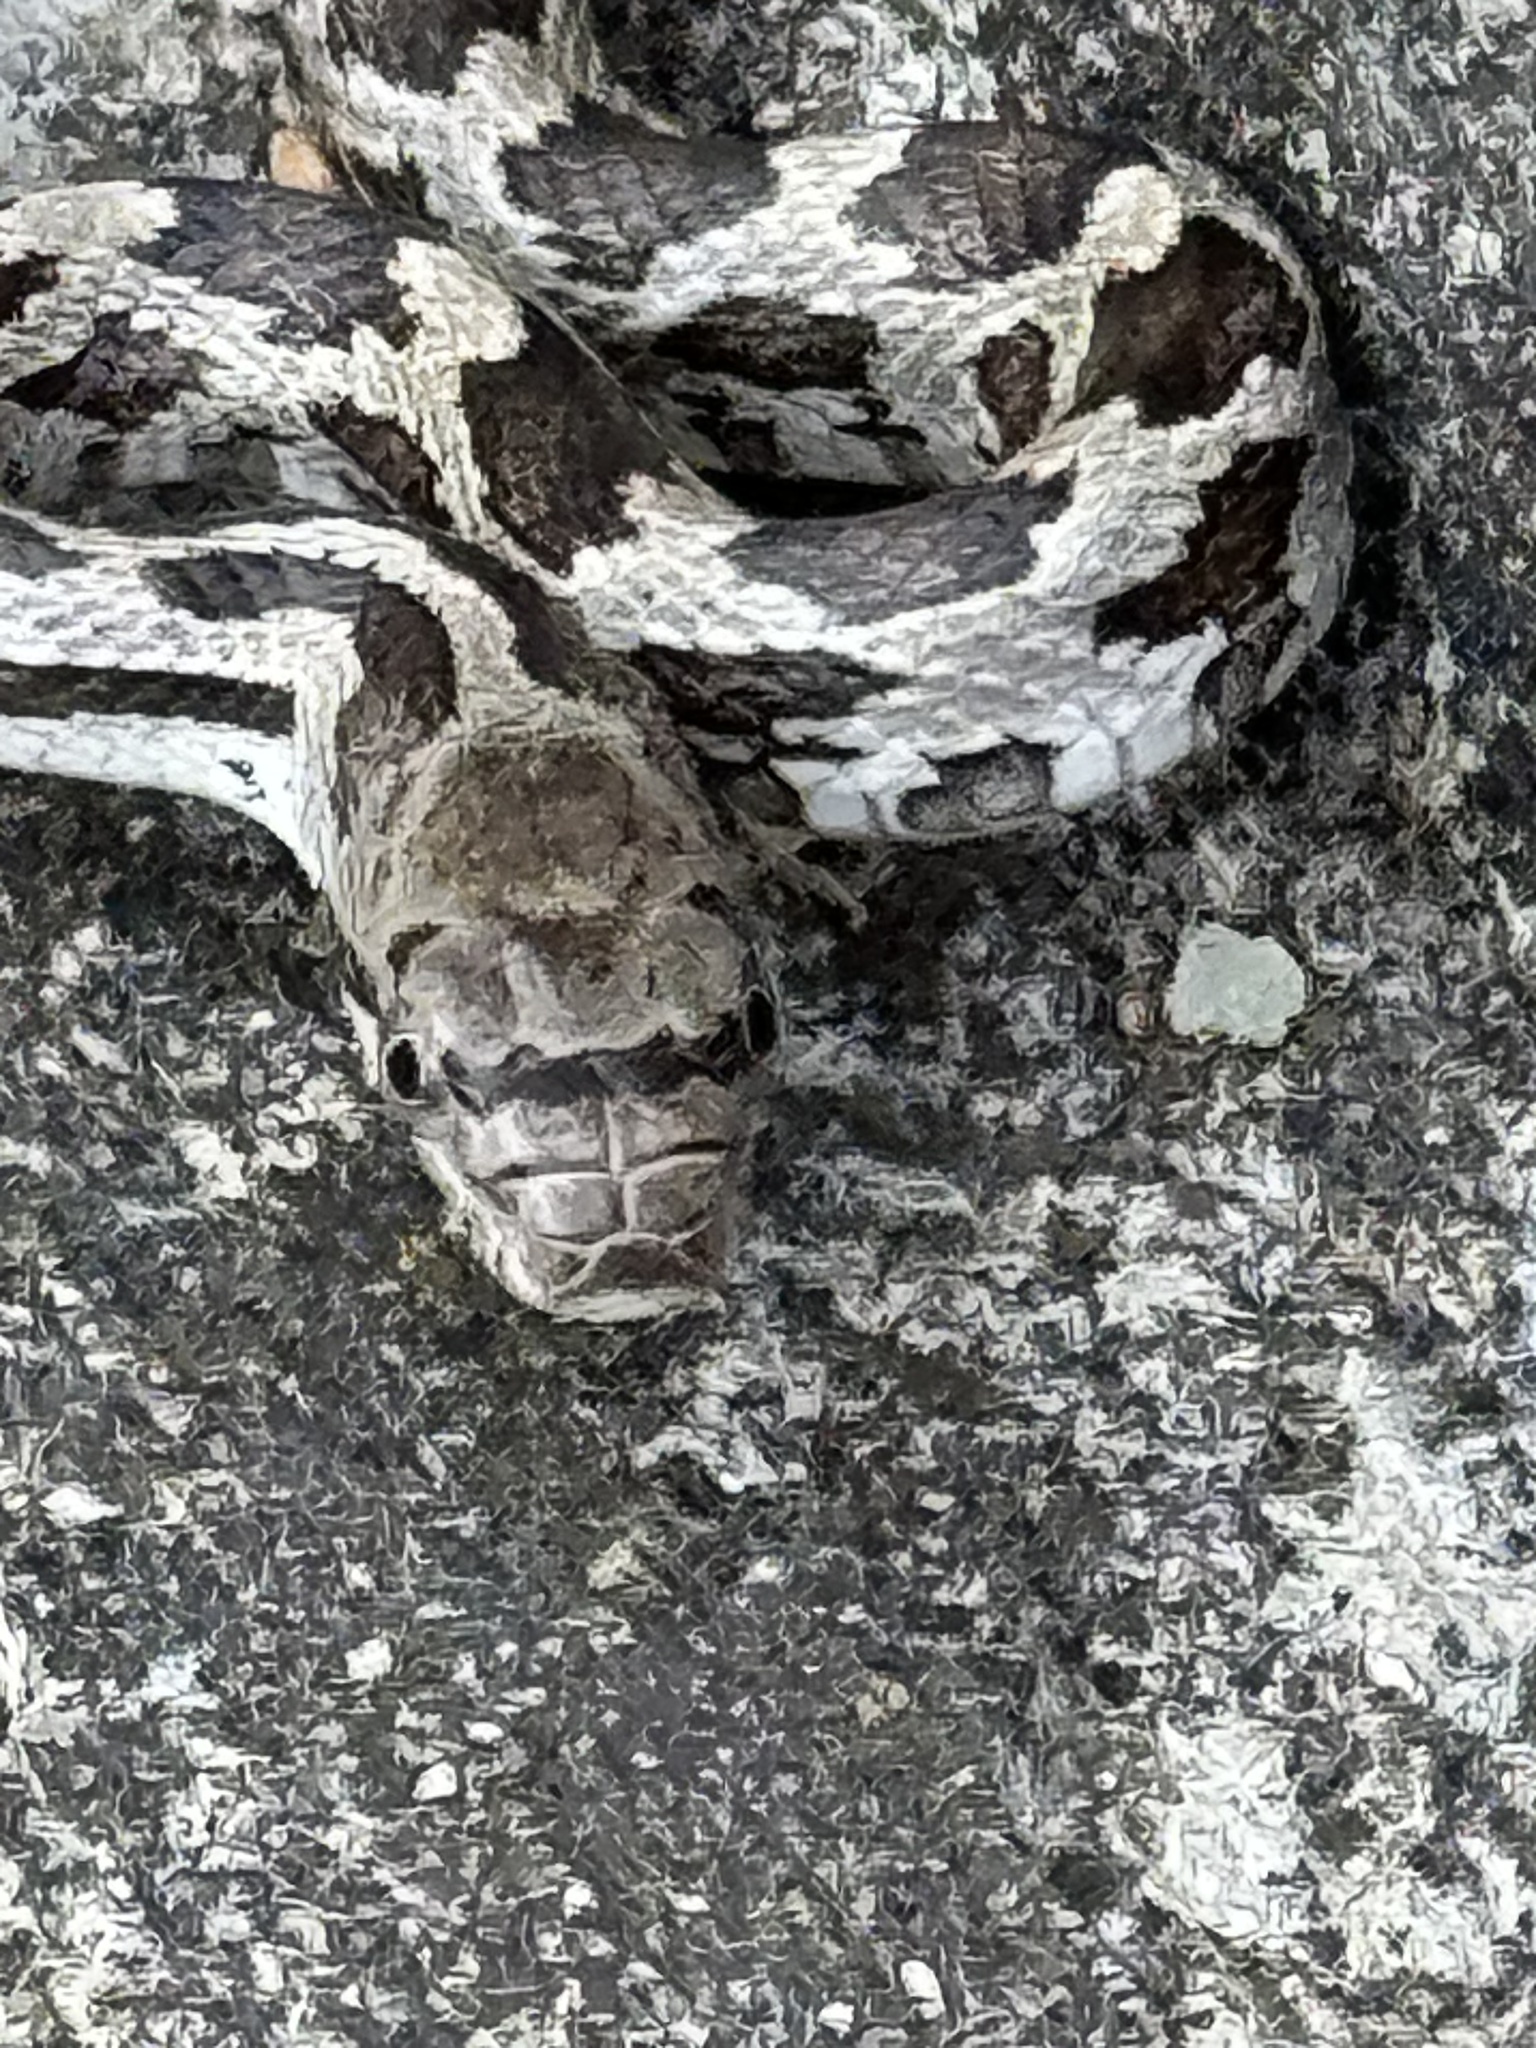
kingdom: Animalia
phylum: Chordata
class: Squamata
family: Colubridae
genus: Pantherophis
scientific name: Pantherophis
